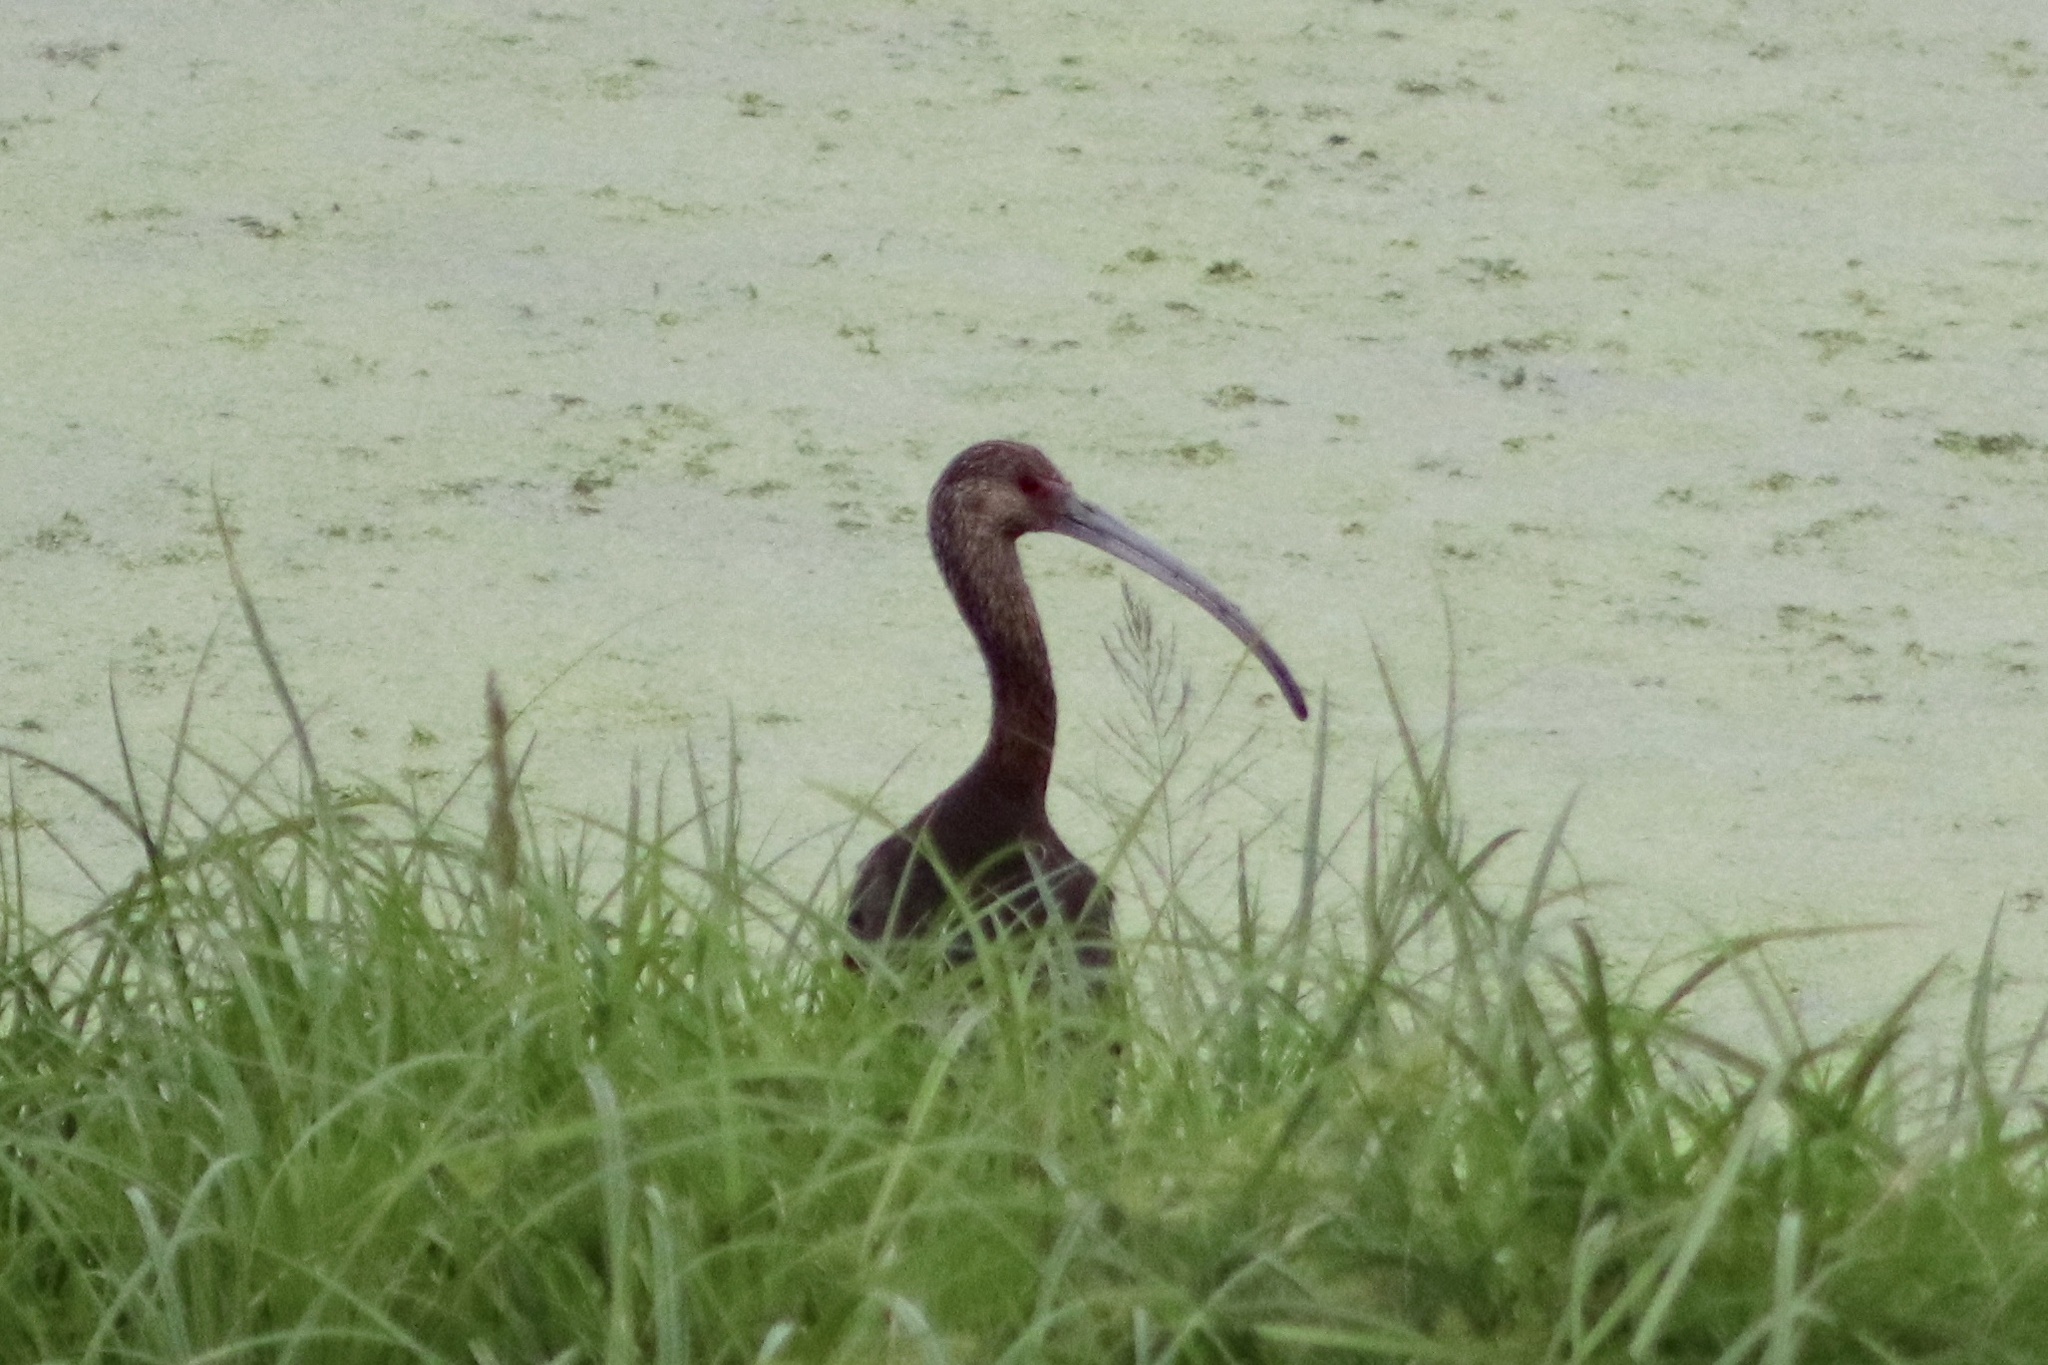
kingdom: Animalia
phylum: Chordata
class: Aves
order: Pelecaniformes
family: Threskiornithidae
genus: Plegadis
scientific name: Plegadis chihi
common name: White-faced ibis
